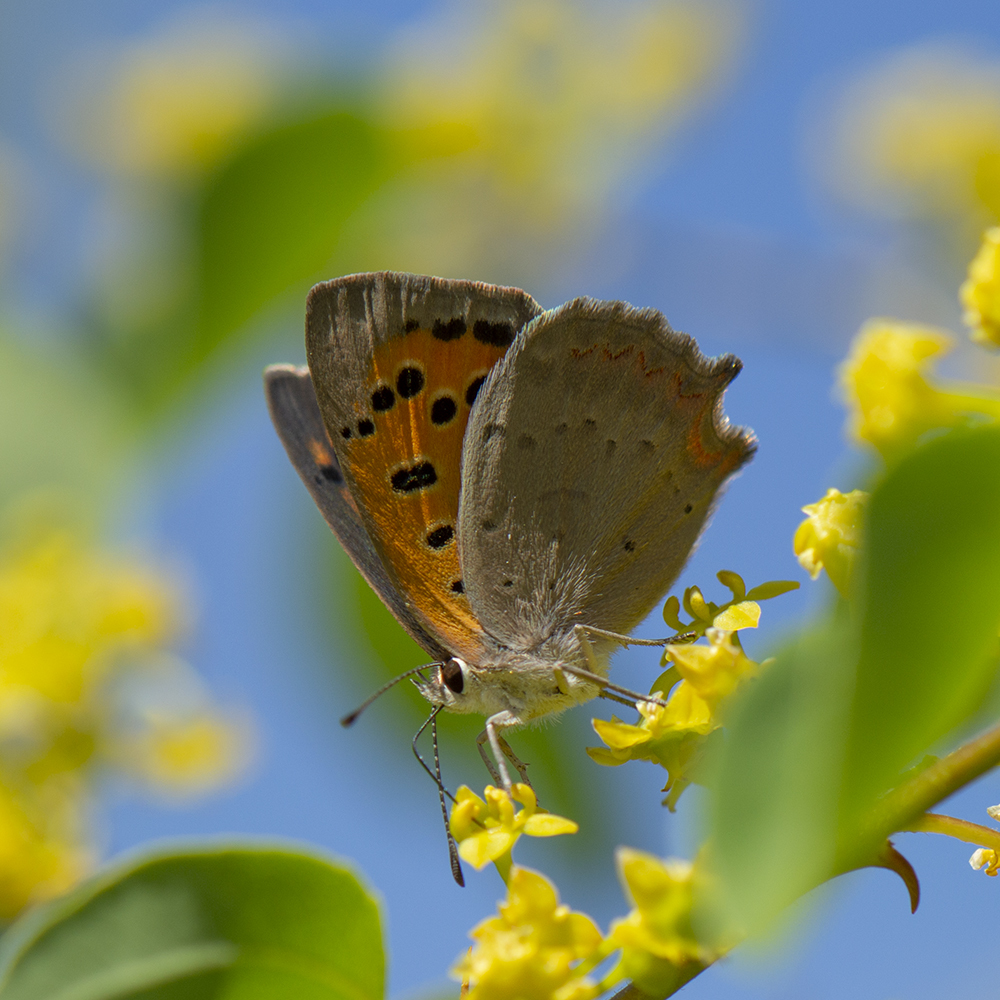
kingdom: Animalia
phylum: Arthropoda
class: Insecta
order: Lepidoptera
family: Lycaenidae
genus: Lycaena
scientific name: Lycaena phlaeas
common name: Small copper
